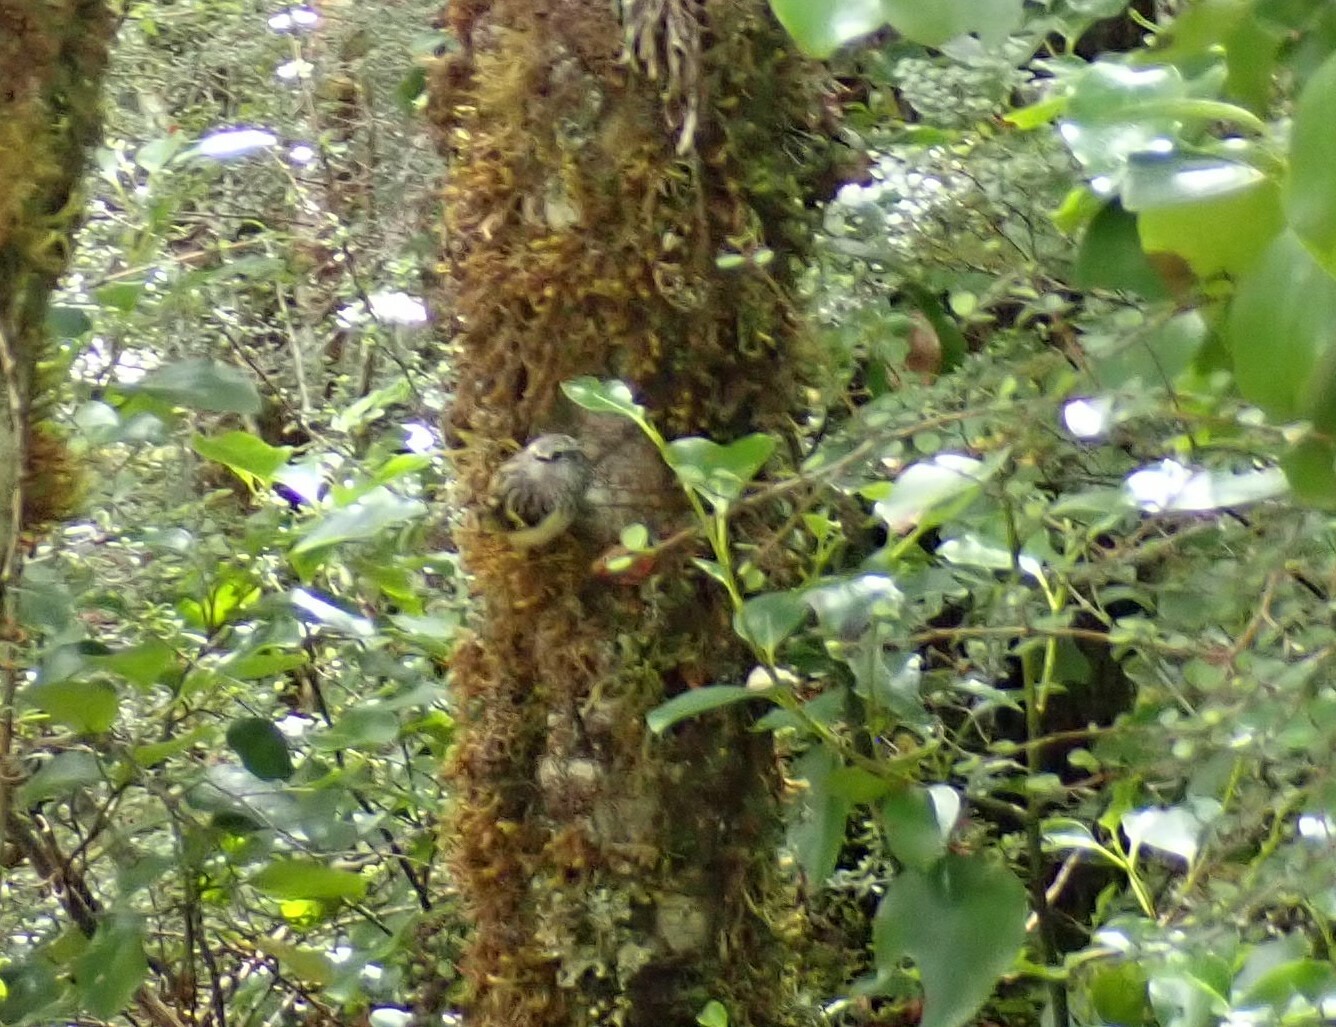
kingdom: Animalia
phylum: Chordata
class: Aves
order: Passeriformes
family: Acanthisittidae
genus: Acanthisitta
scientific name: Acanthisitta chloris
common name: Rifleman
